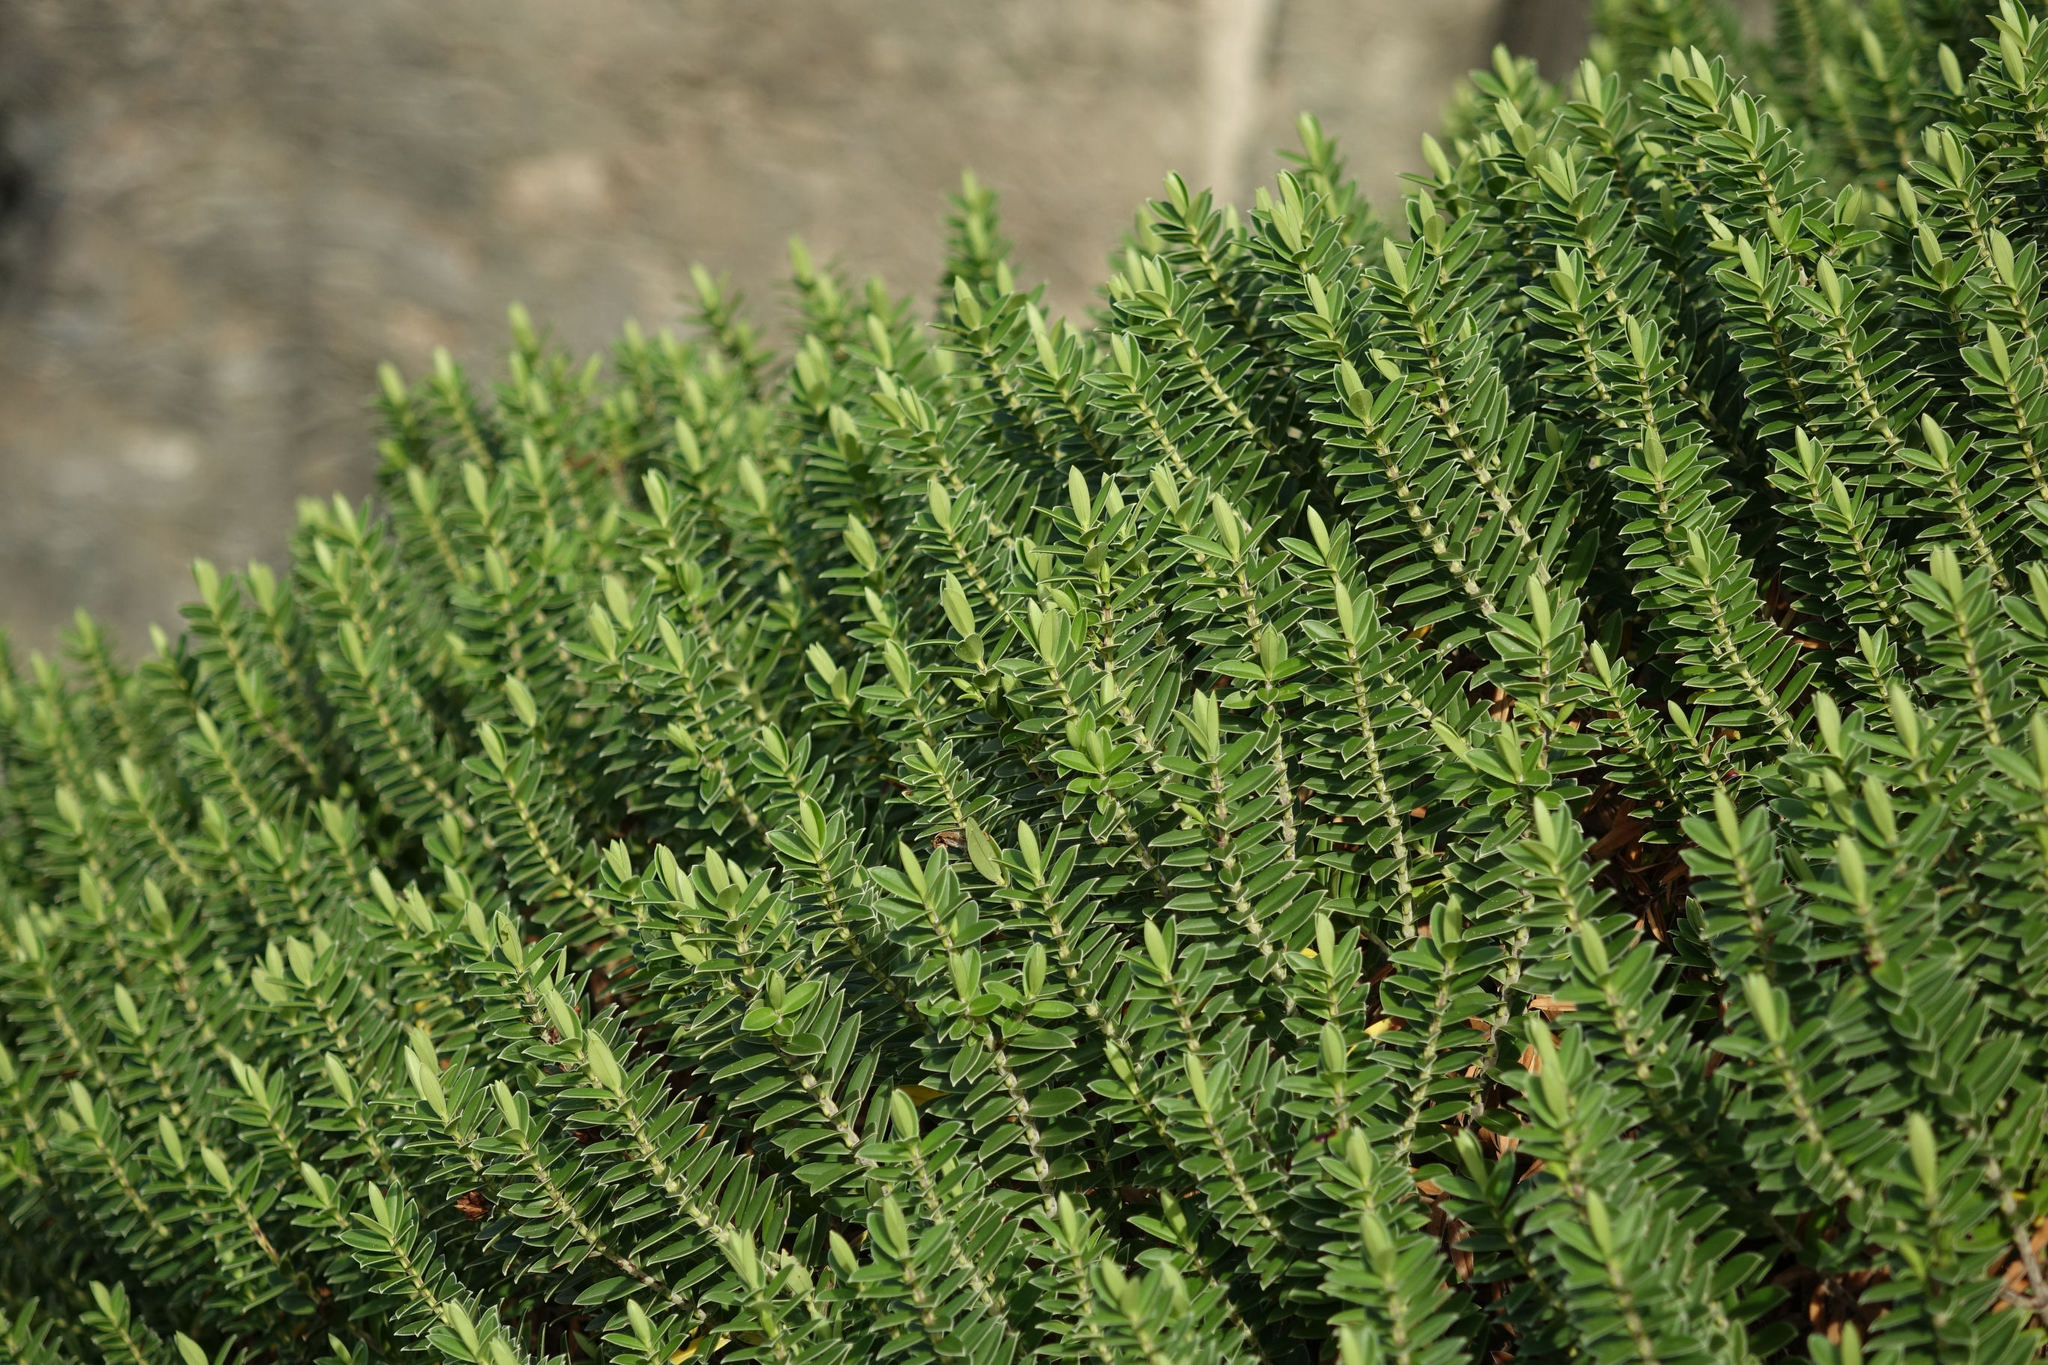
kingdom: Plantae
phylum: Tracheophyta
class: Magnoliopsida
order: Lamiales
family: Plantaginaceae
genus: Veronica
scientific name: Veronica elliptica
